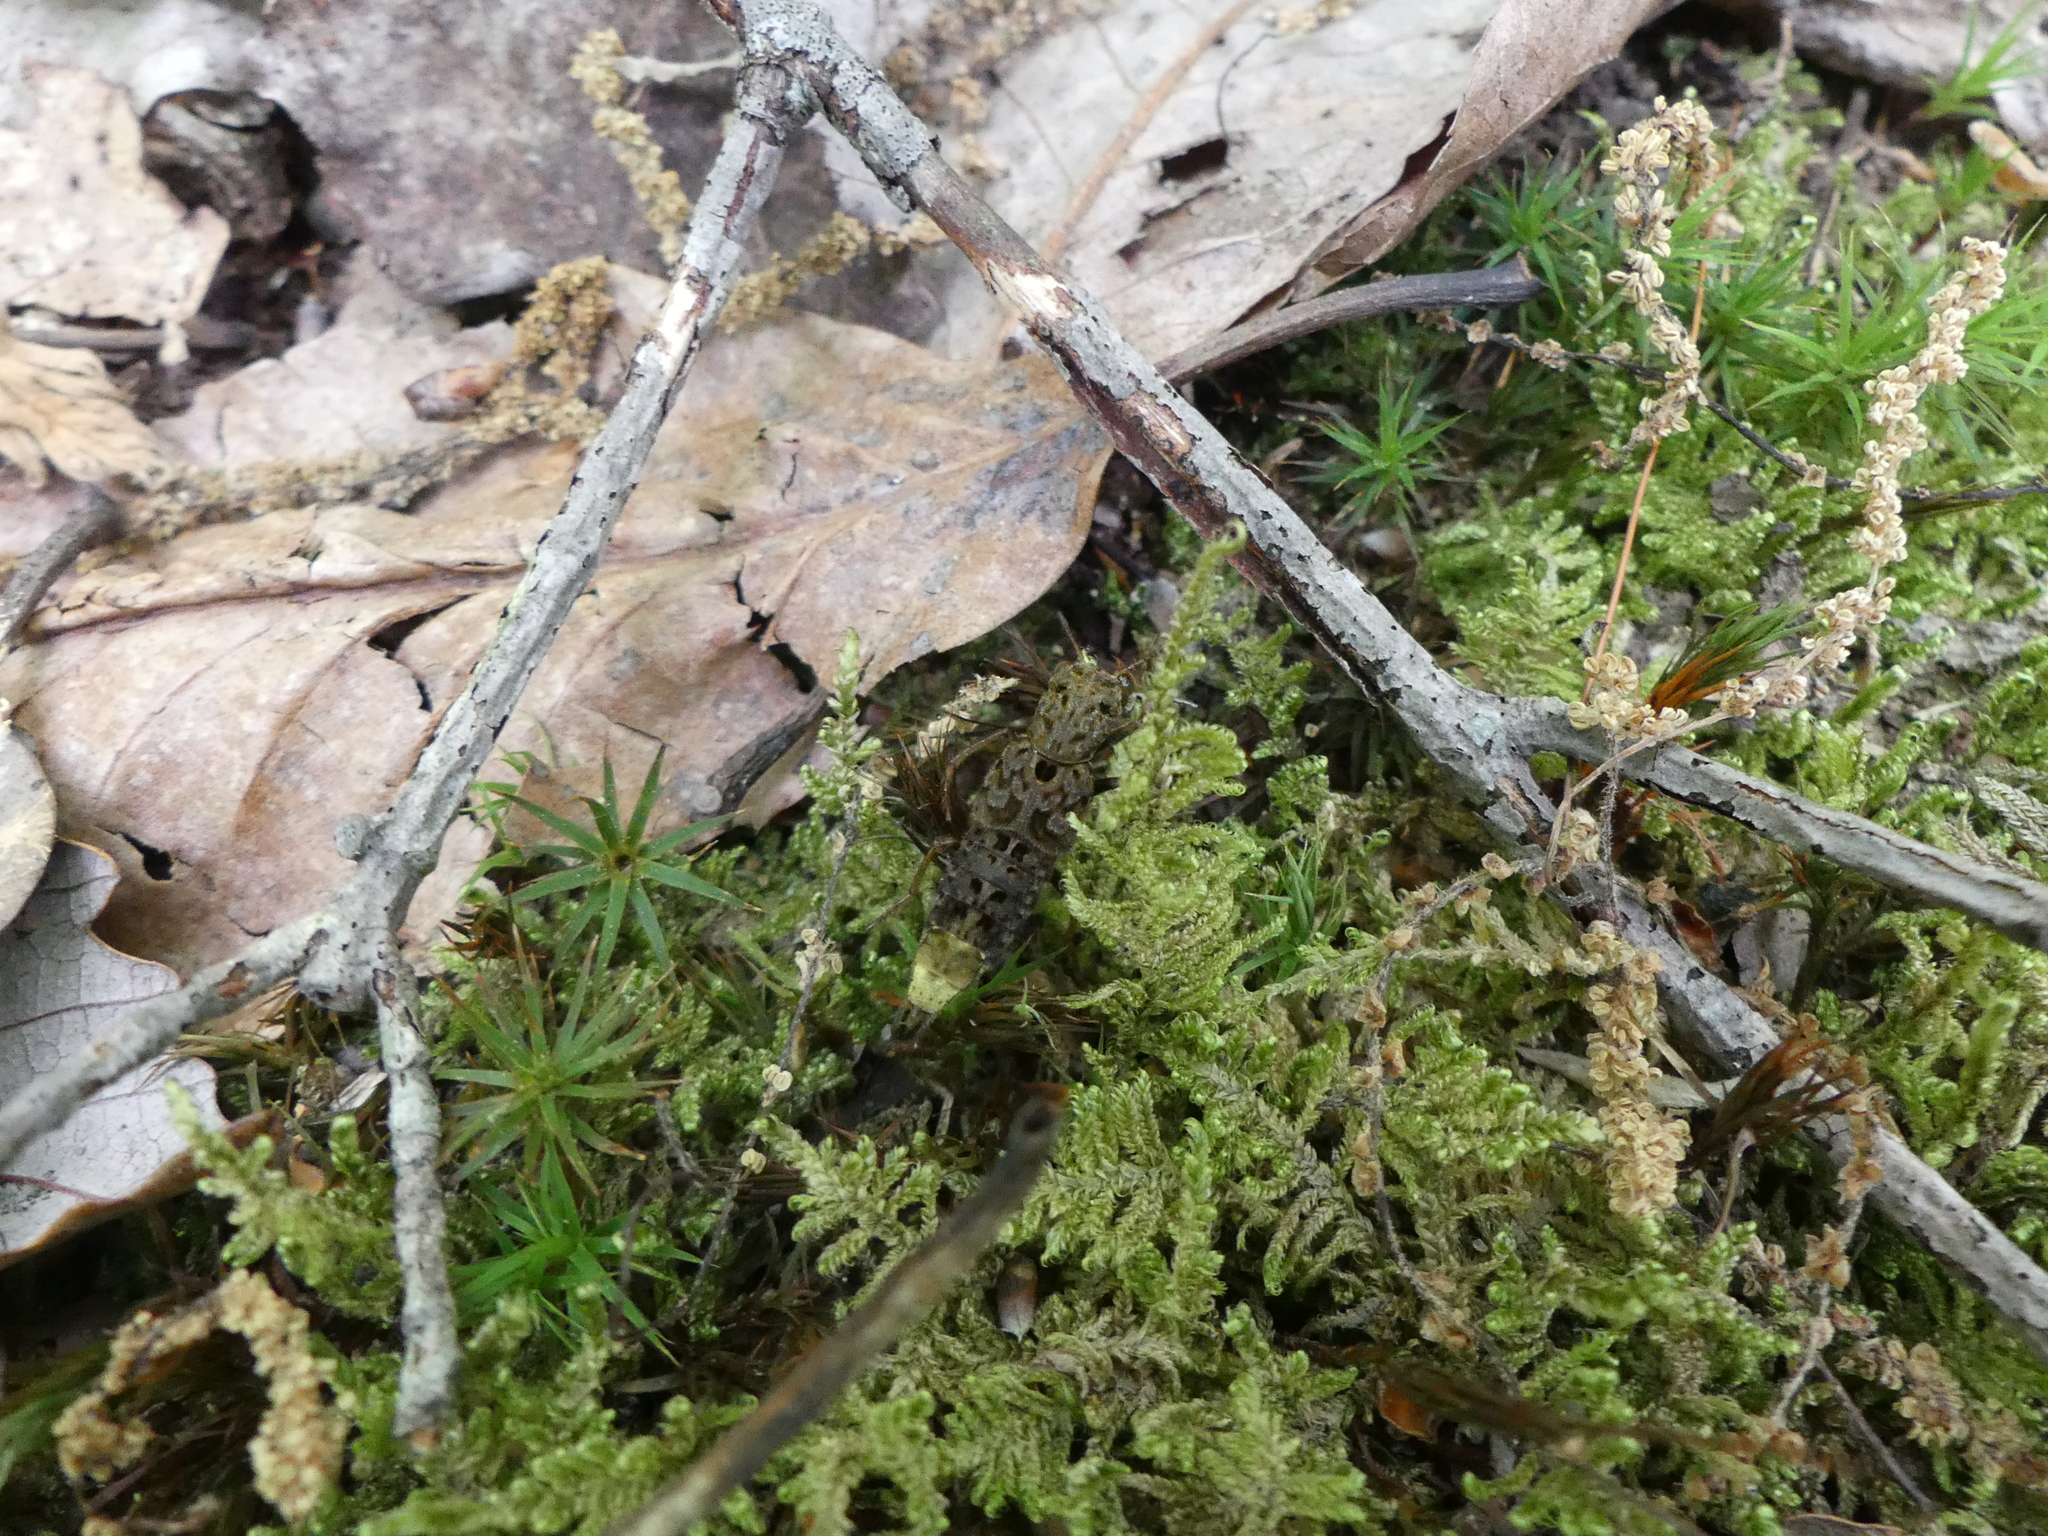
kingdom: Animalia
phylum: Arthropoda
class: Insecta
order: Coleoptera
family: Staphylinidae
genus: Ontholestes
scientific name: Ontholestes cingulatus
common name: Gold-and-brown rove beetle
